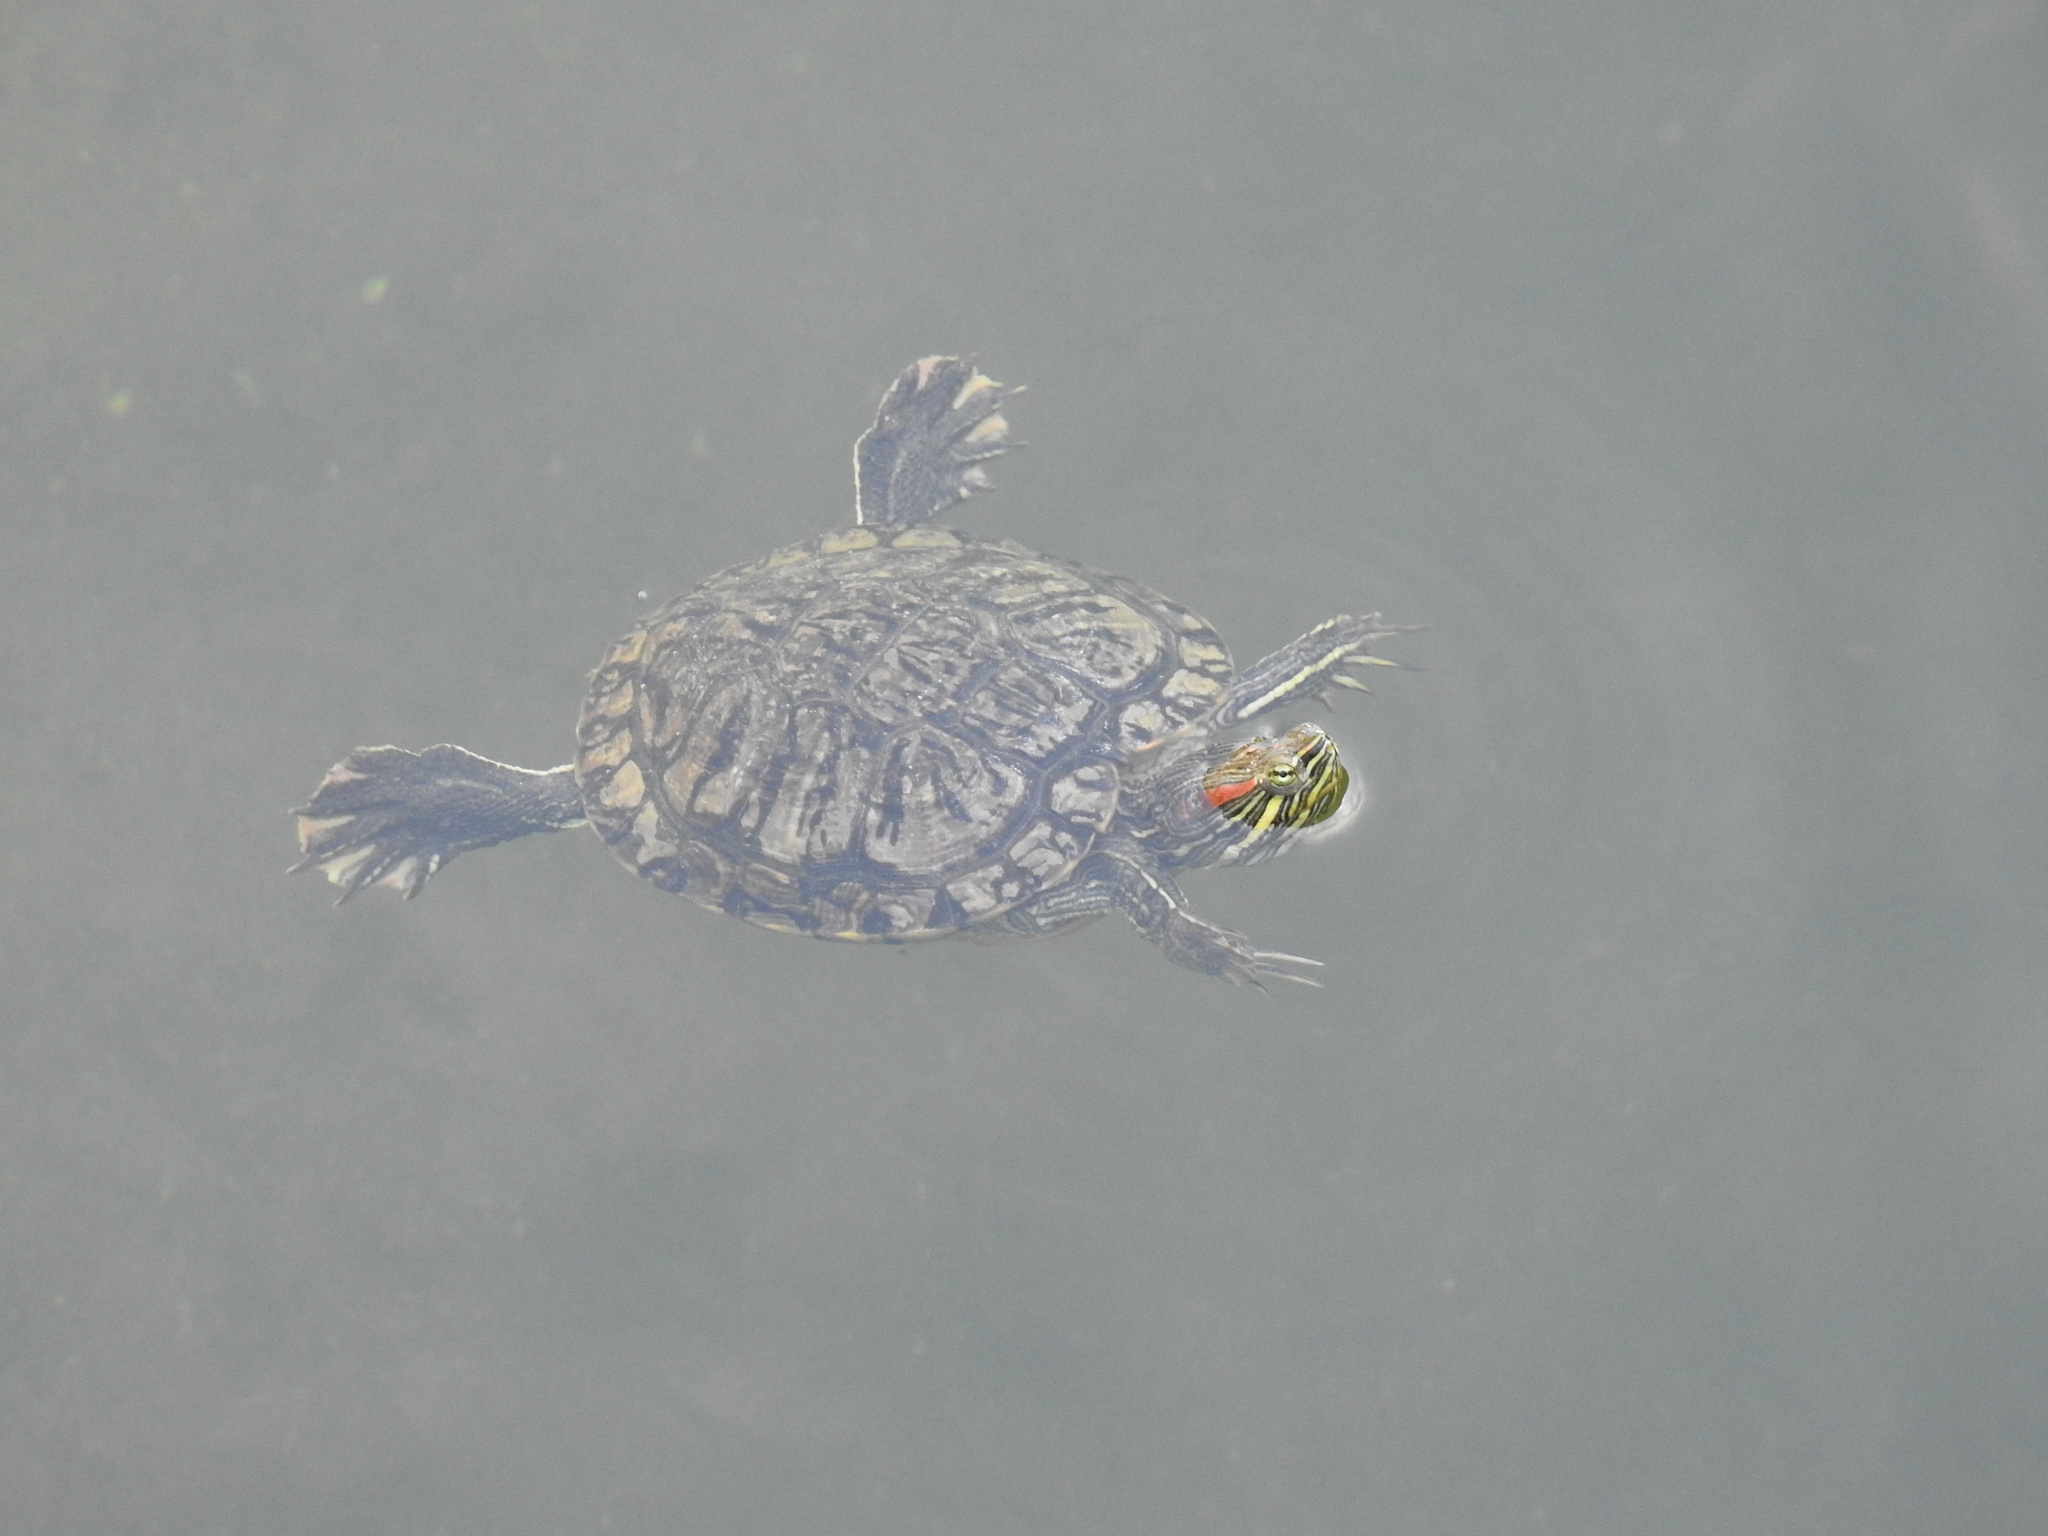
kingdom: Animalia
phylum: Chordata
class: Testudines
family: Emydidae
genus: Trachemys
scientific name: Trachemys scripta
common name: Slider
